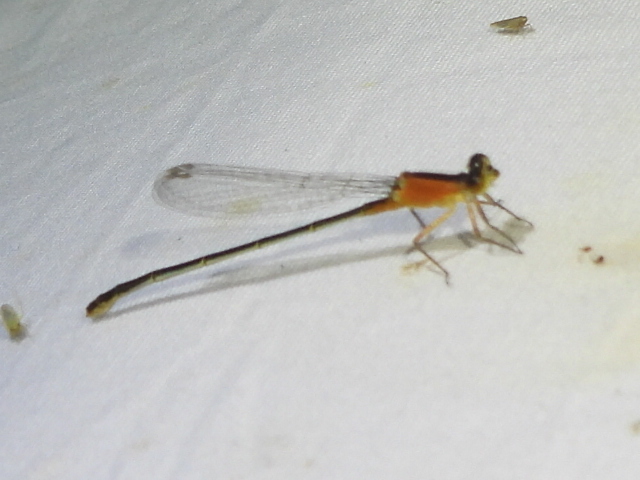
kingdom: Animalia
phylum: Arthropoda
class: Insecta
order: Odonata
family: Coenagrionidae
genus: Ischnura
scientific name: Ischnura ramburii
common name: Rambur's forktail
